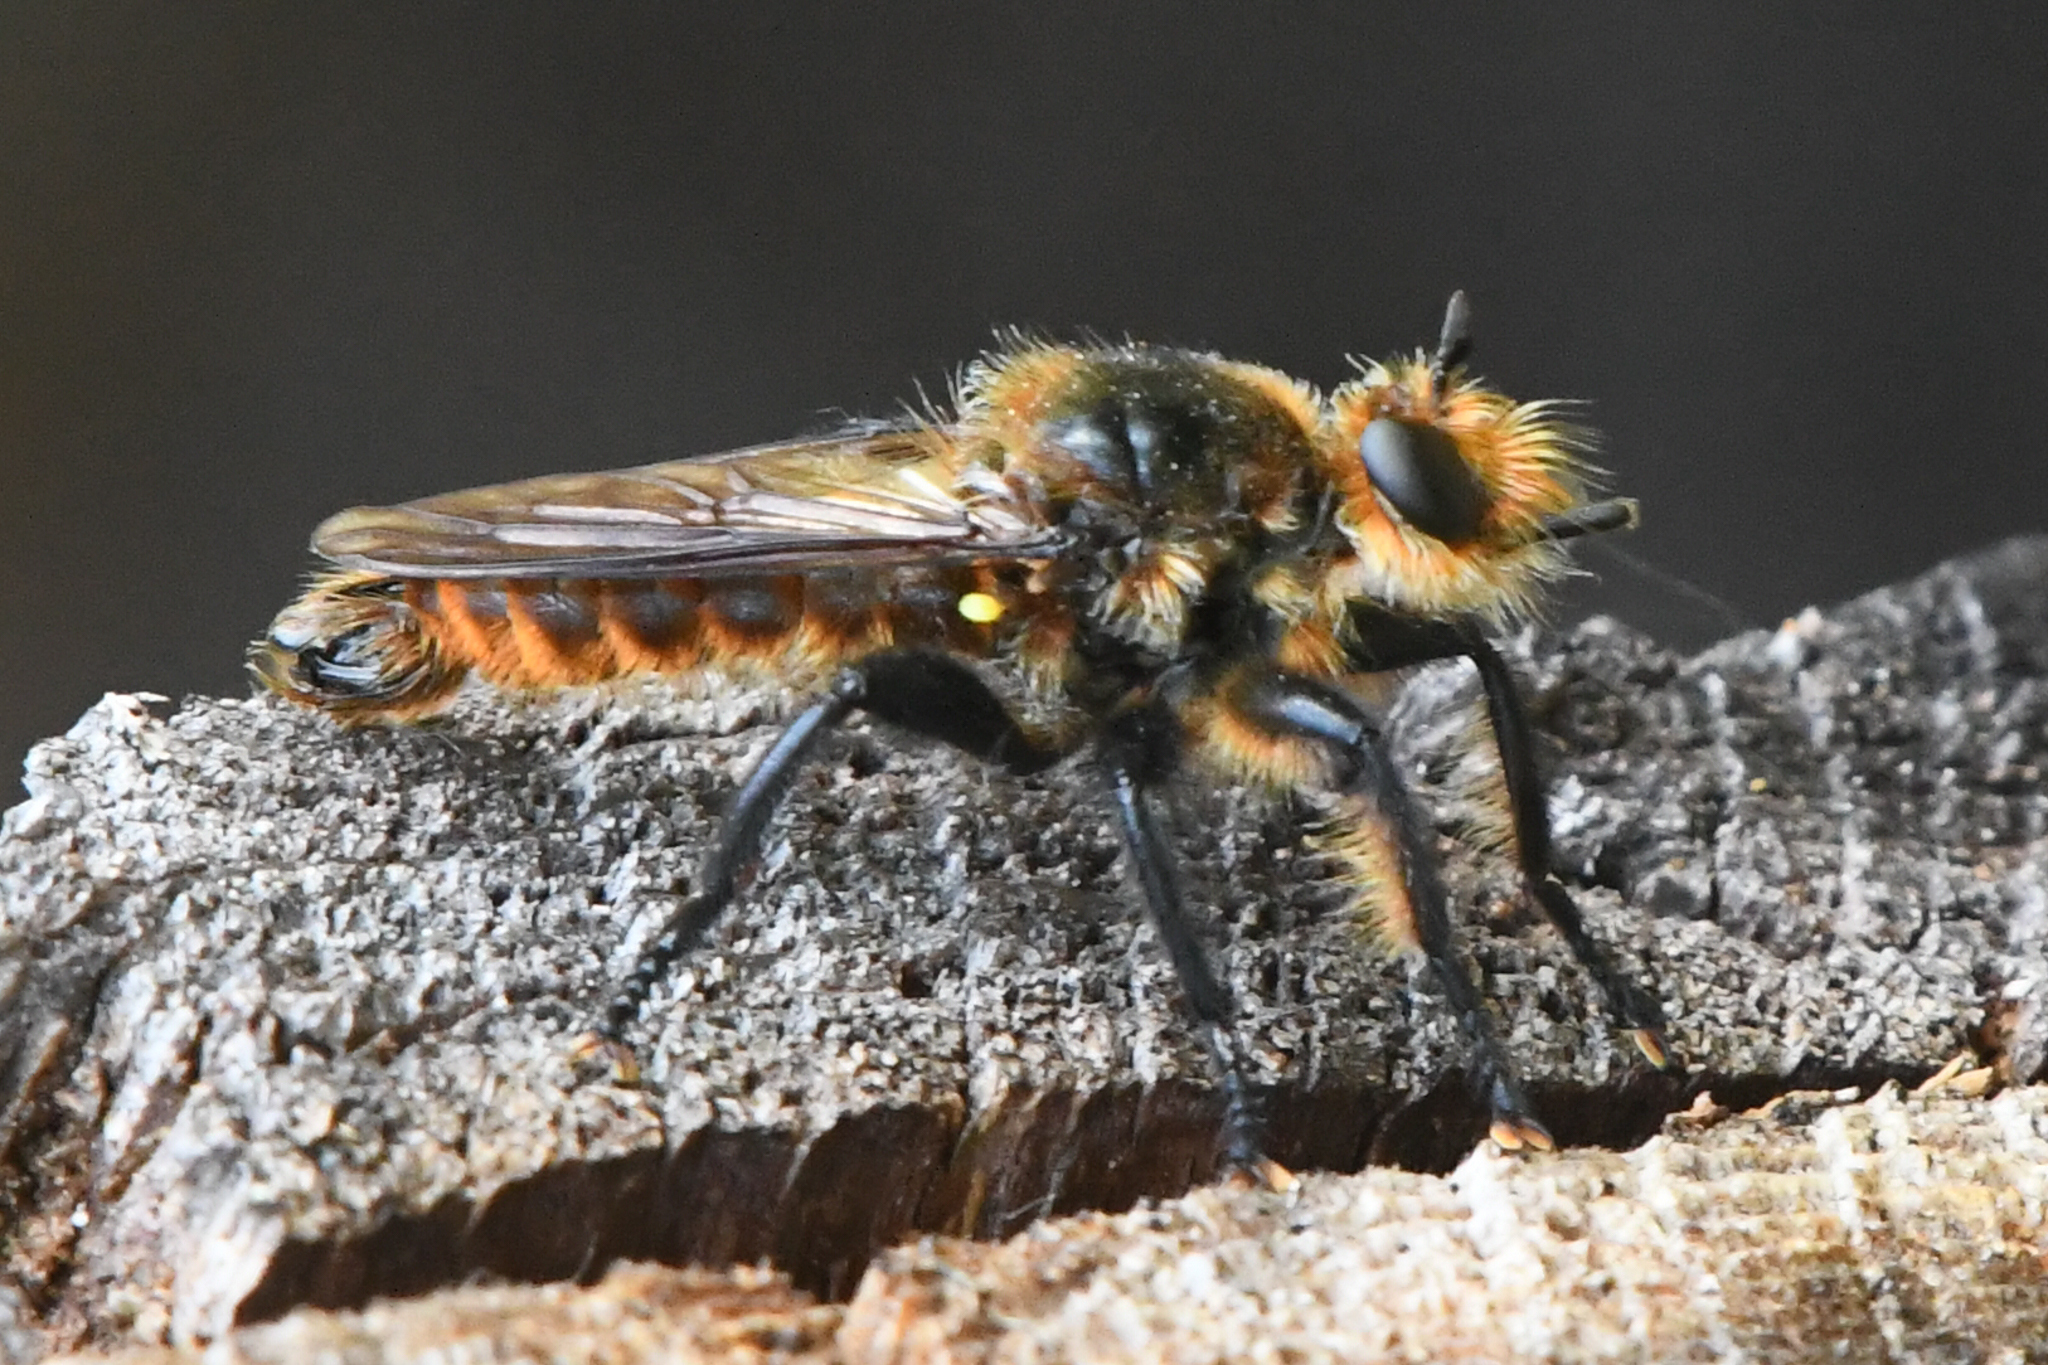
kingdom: Animalia
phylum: Arthropoda
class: Insecta
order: Diptera
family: Asilidae
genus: Laphria
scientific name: Laphria asackeni
